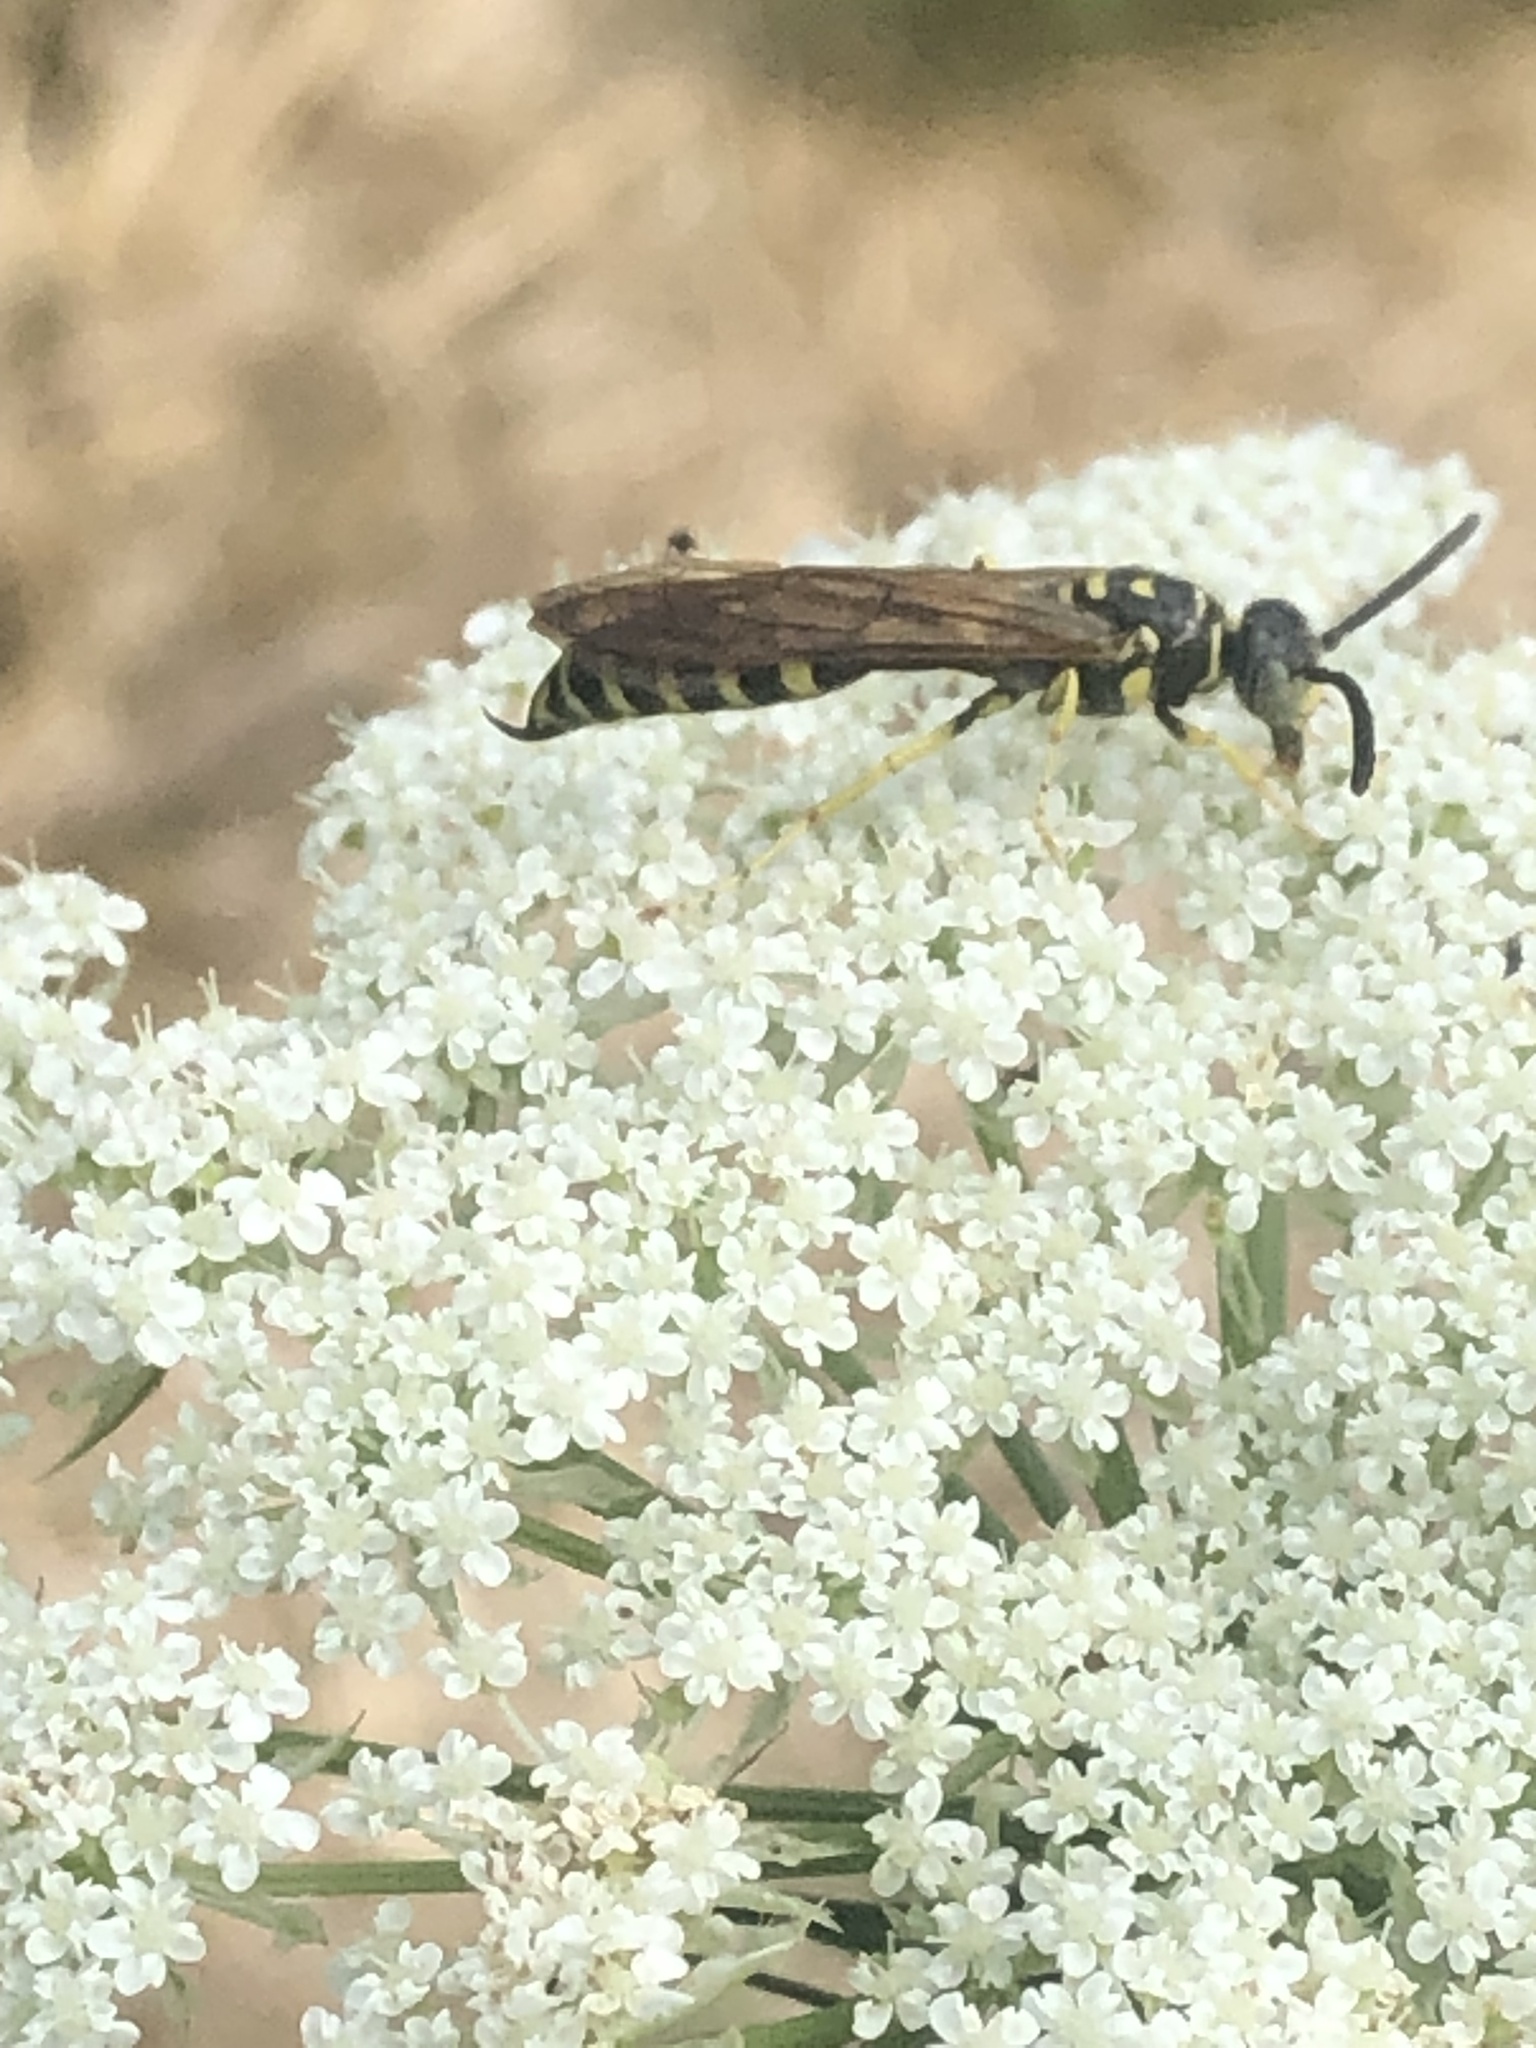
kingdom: Animalia
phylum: Arthropoda
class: Insecta
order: Hymenoptera
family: Tiphiidae
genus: Myzinum
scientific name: Myzinum quinquecinctum
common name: Five-banded thynnid wasp
